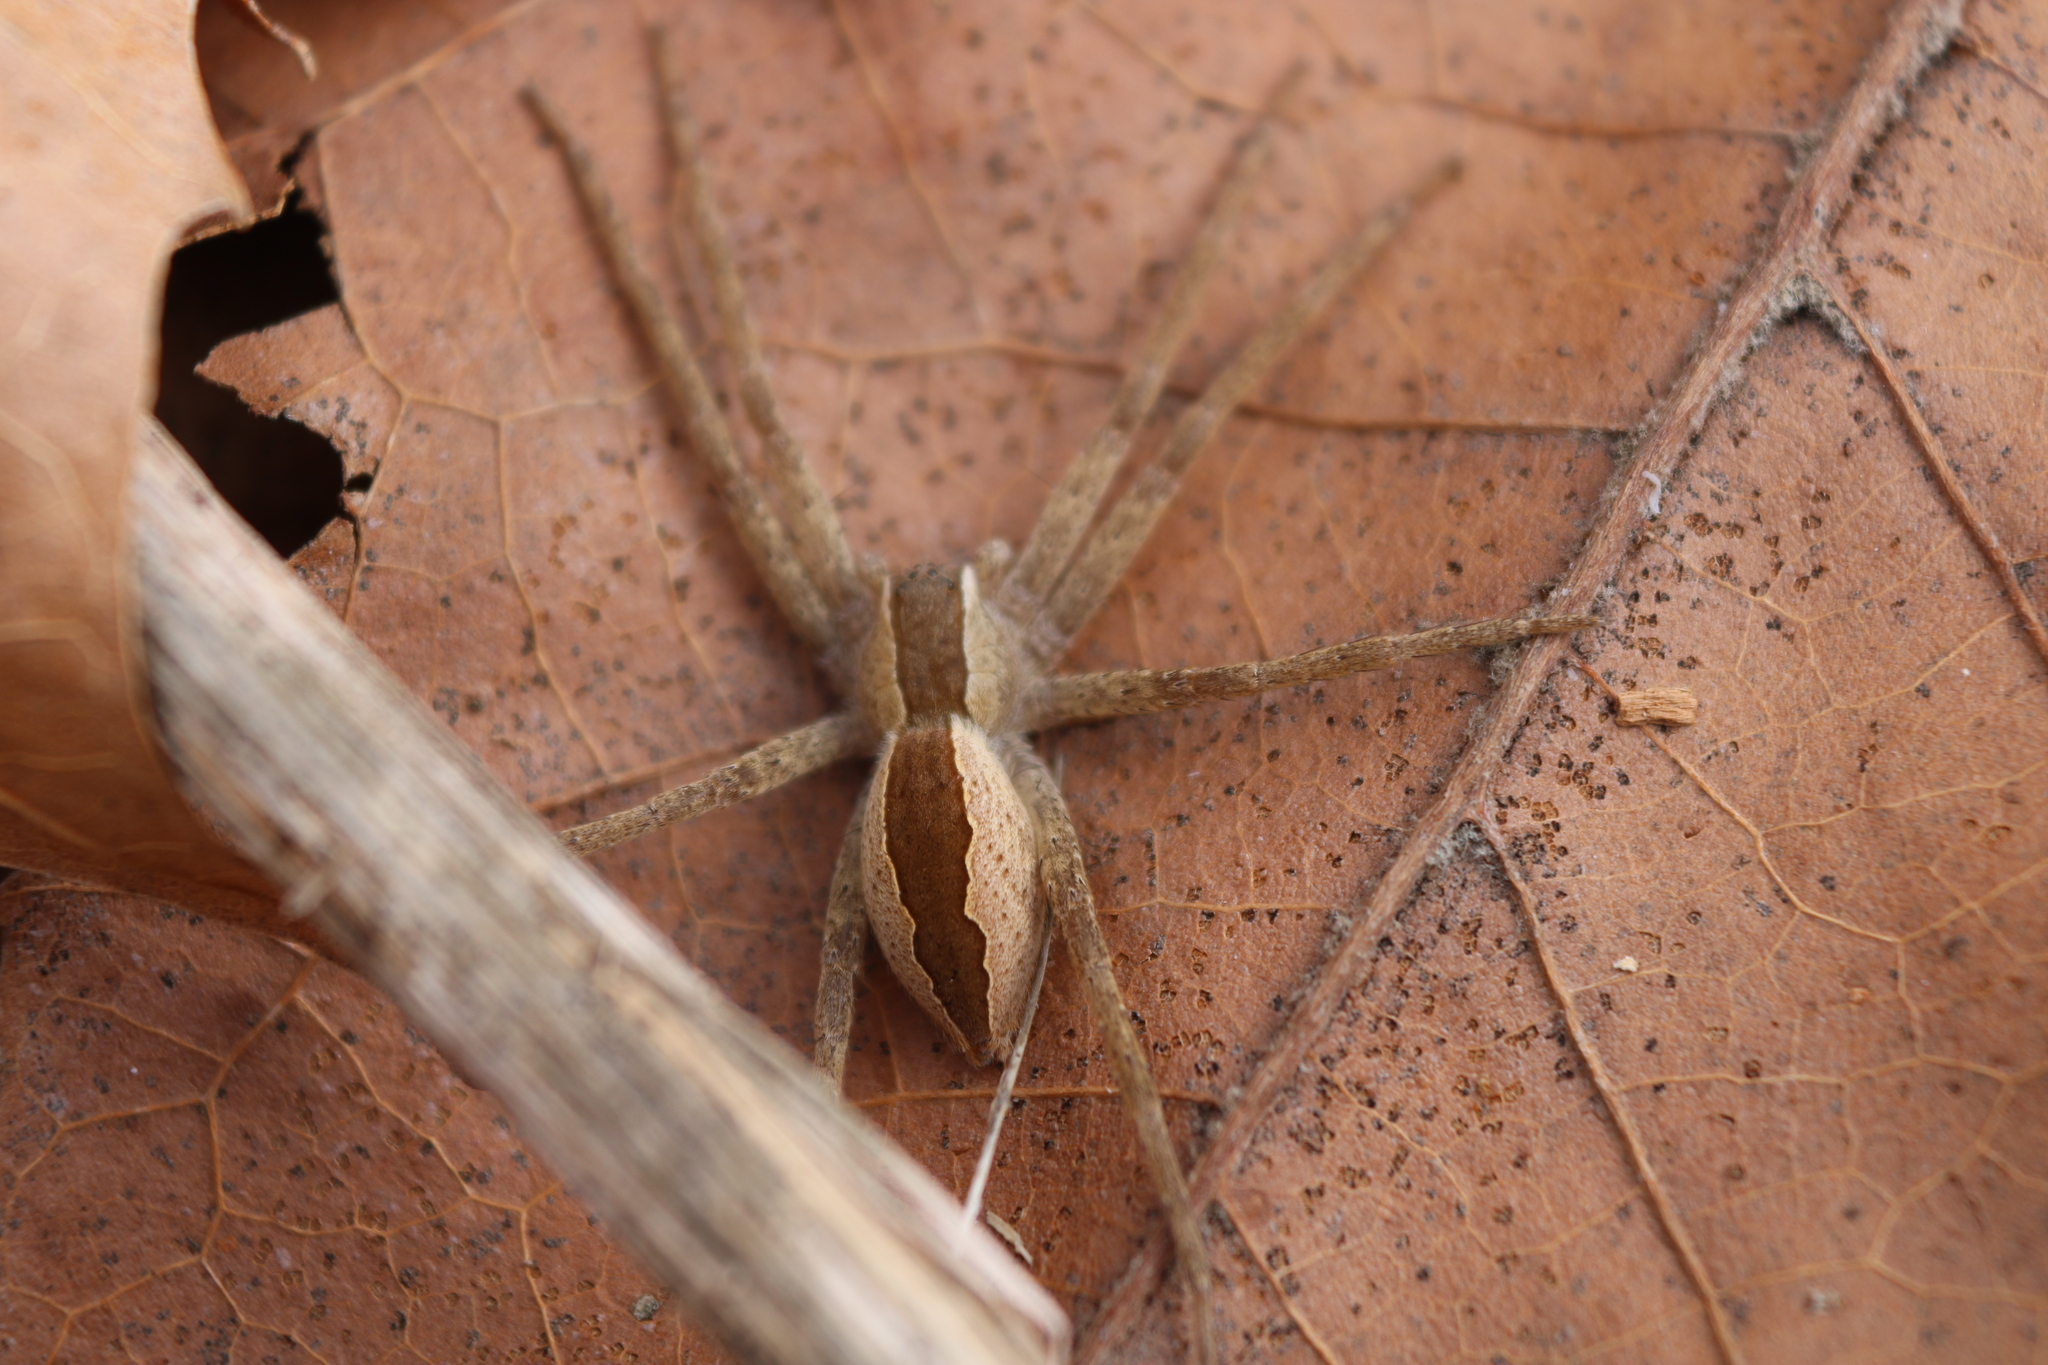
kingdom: Animalia
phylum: Arthropoda
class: Arachnida
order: Araneae
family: Pisauridae
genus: Pisaurina
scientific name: Pisaurina mira
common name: American nursery web spider
